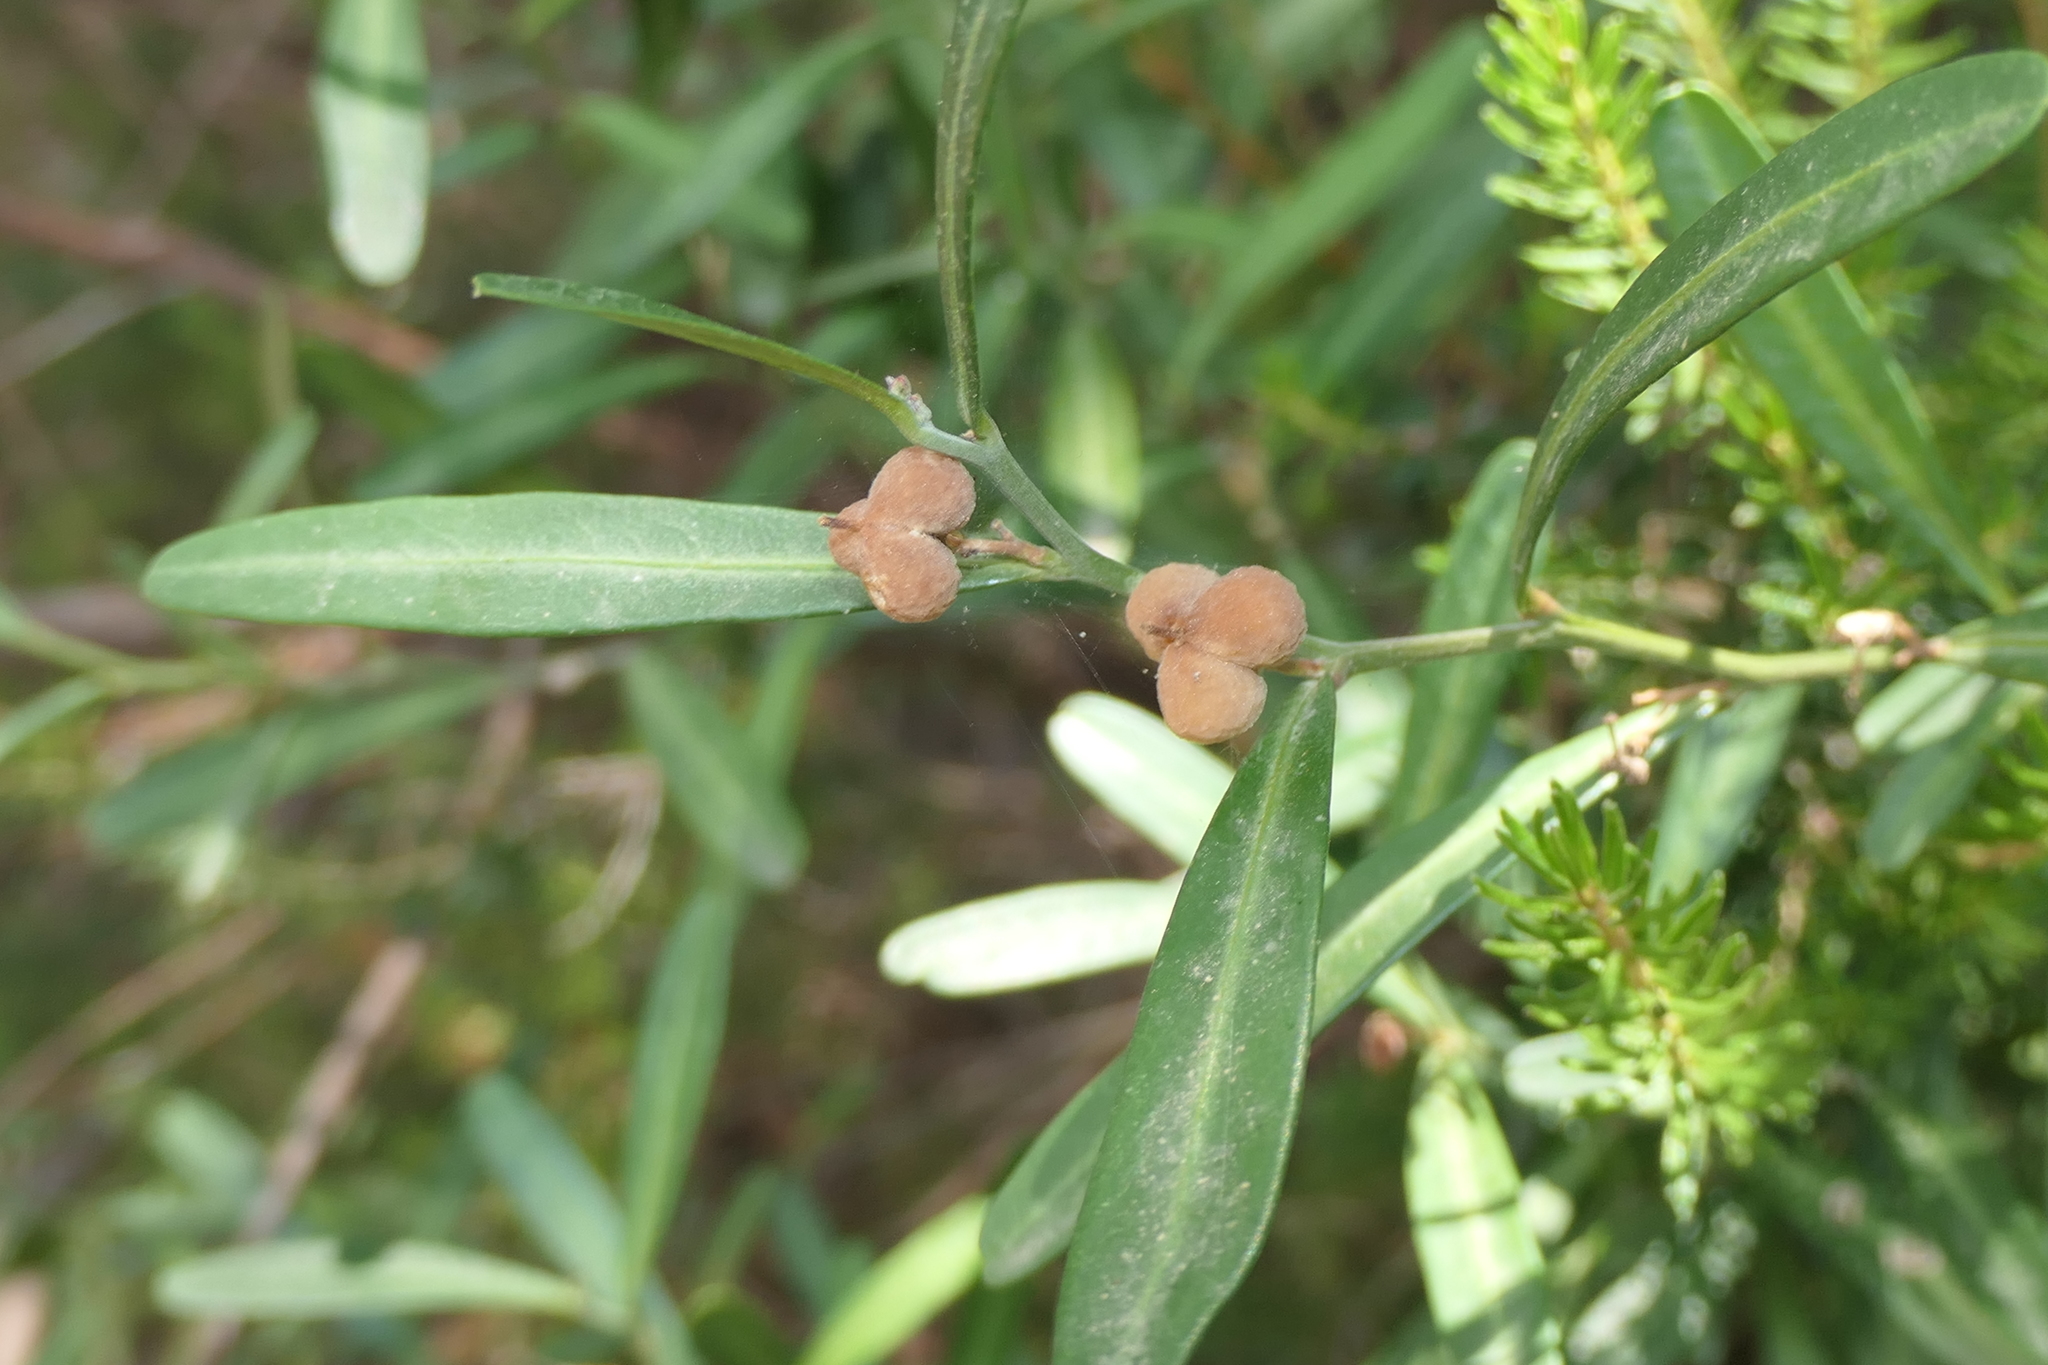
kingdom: Plantae
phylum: Tracheophyta
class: Magnoliopsida
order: Sapindales
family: Rutaceae
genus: Cneorum
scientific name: Cneorum tricoccon
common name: Spurge olive
